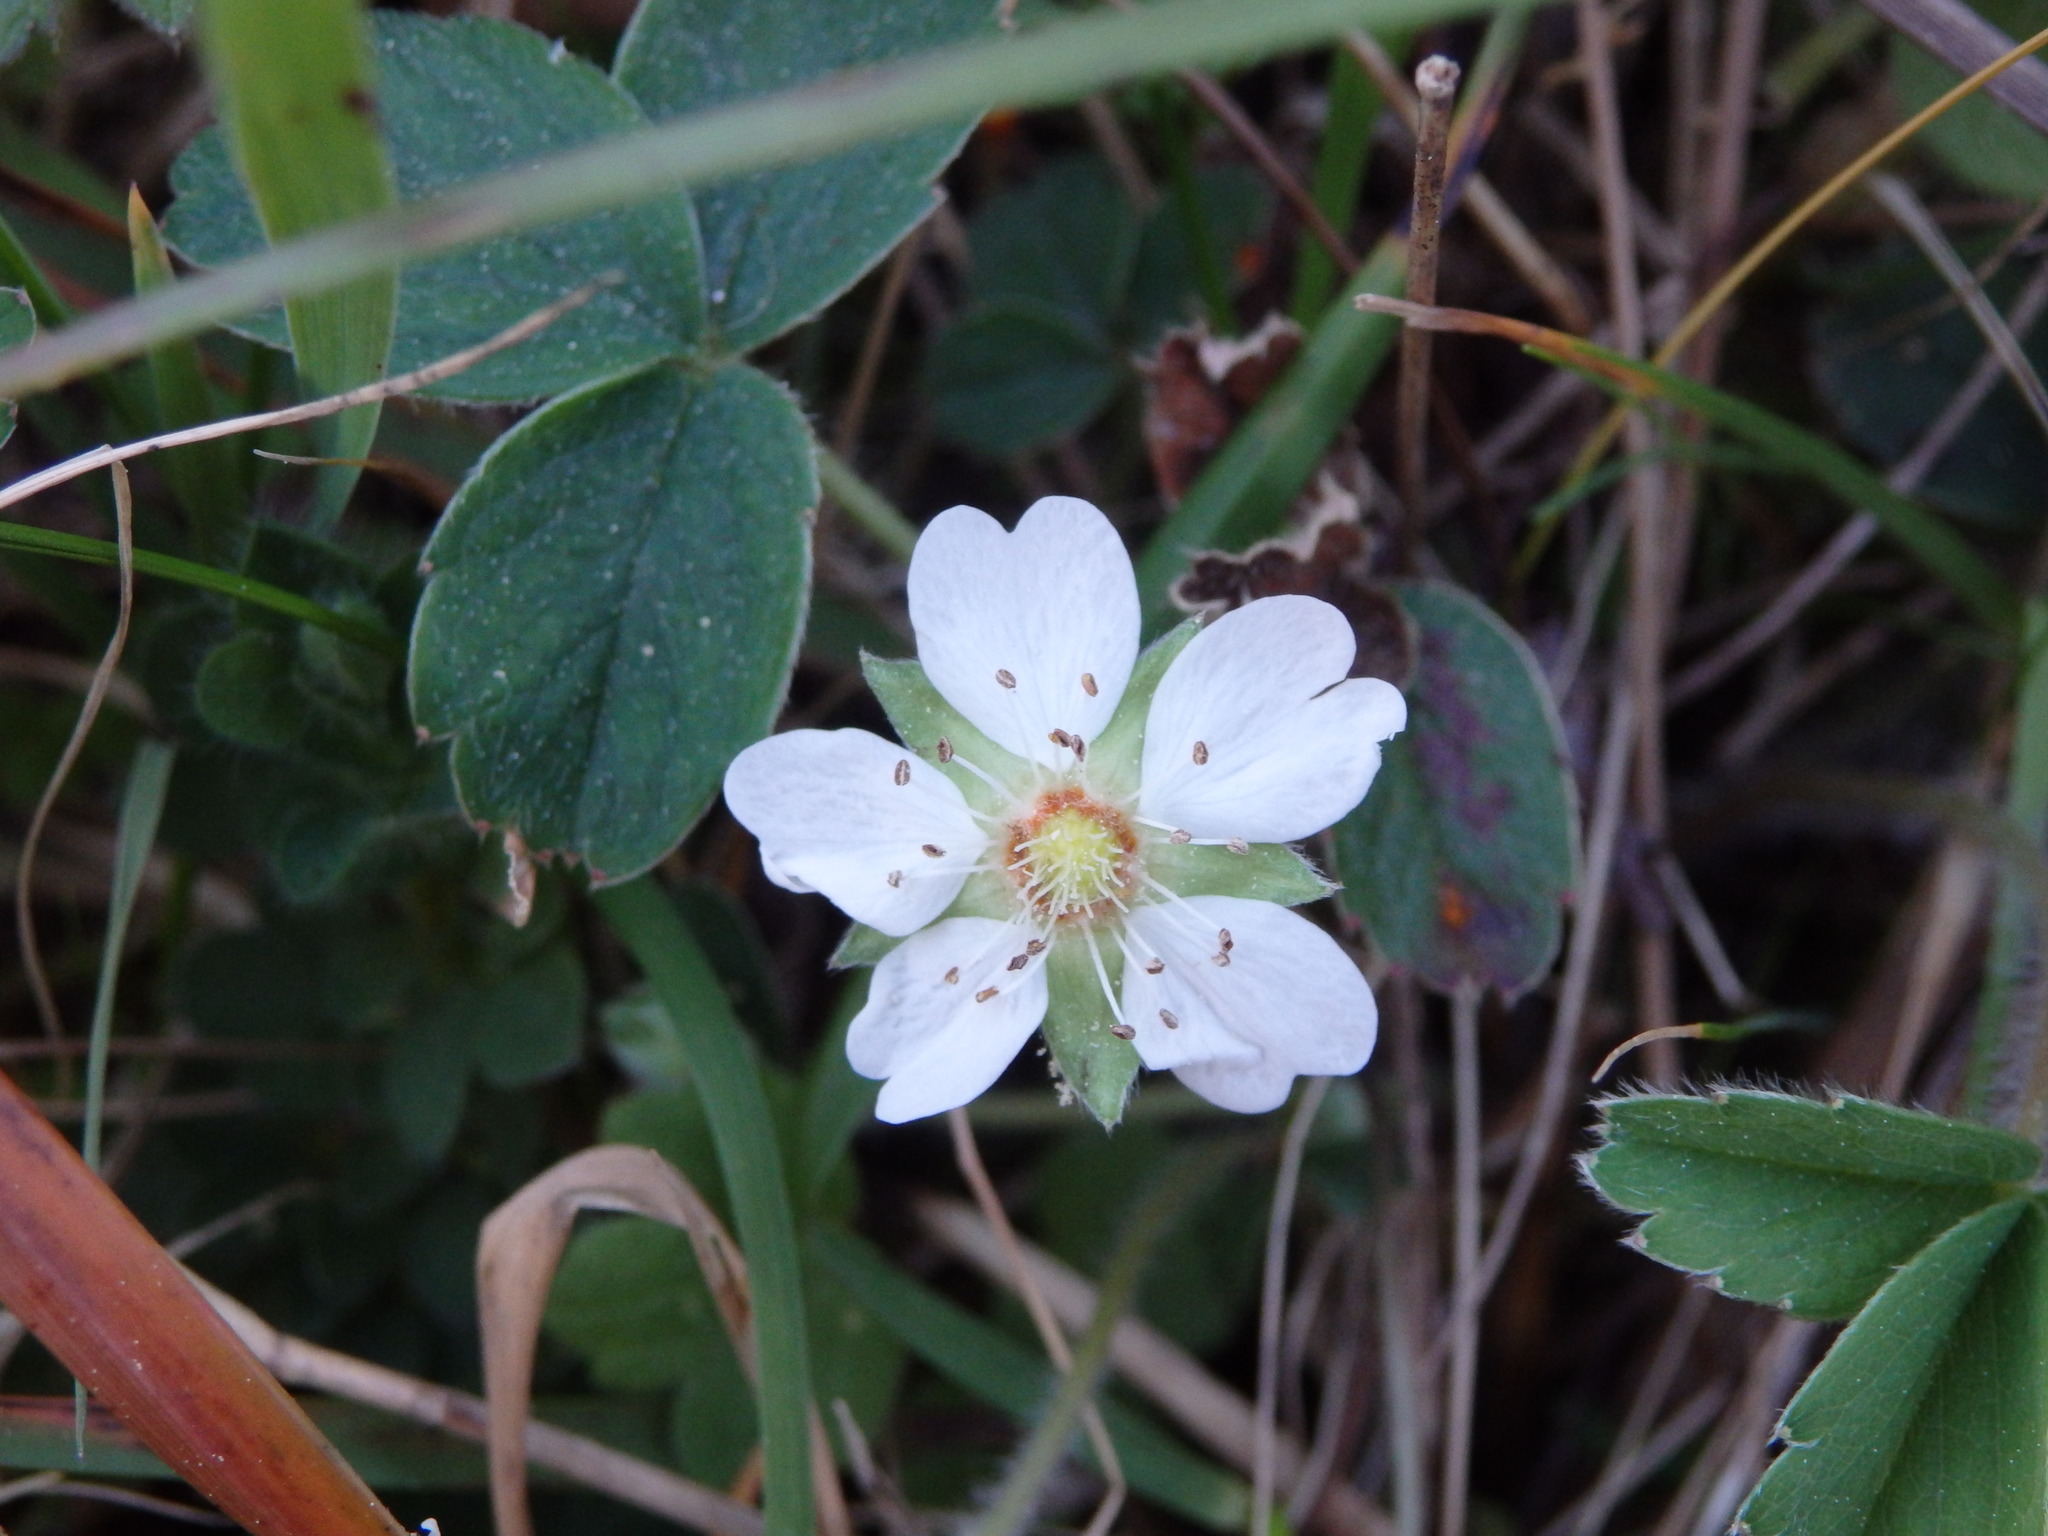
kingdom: Plantae
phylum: Tracheophyta
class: Magnoliopsida
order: Rosales
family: Rosaceae
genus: Potentilla
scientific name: Potentilla montana
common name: Mountain cinquefoil
